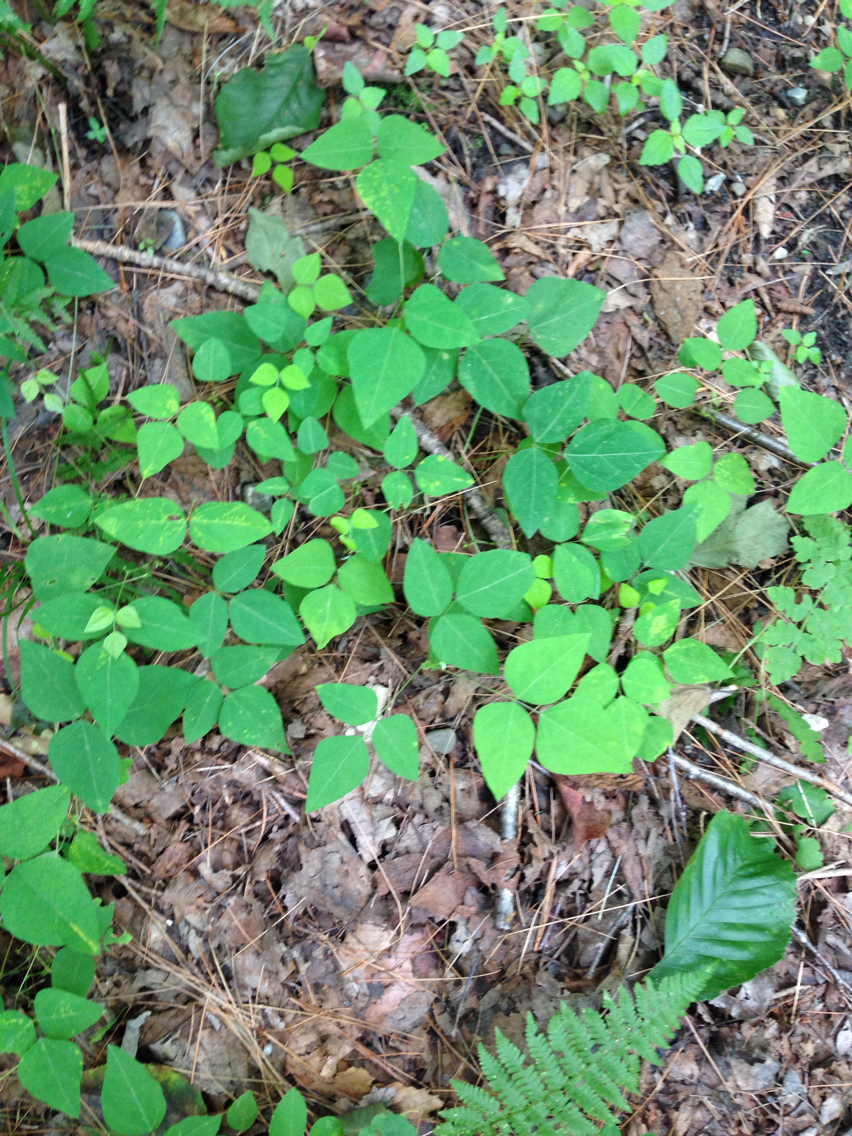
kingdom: Plantae
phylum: Tracheophyta
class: Magnoliopsida
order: Fabales
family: Fabaceae
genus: Amphicarpaea
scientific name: Amphicarpaea bracteata
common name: American hog peanut
